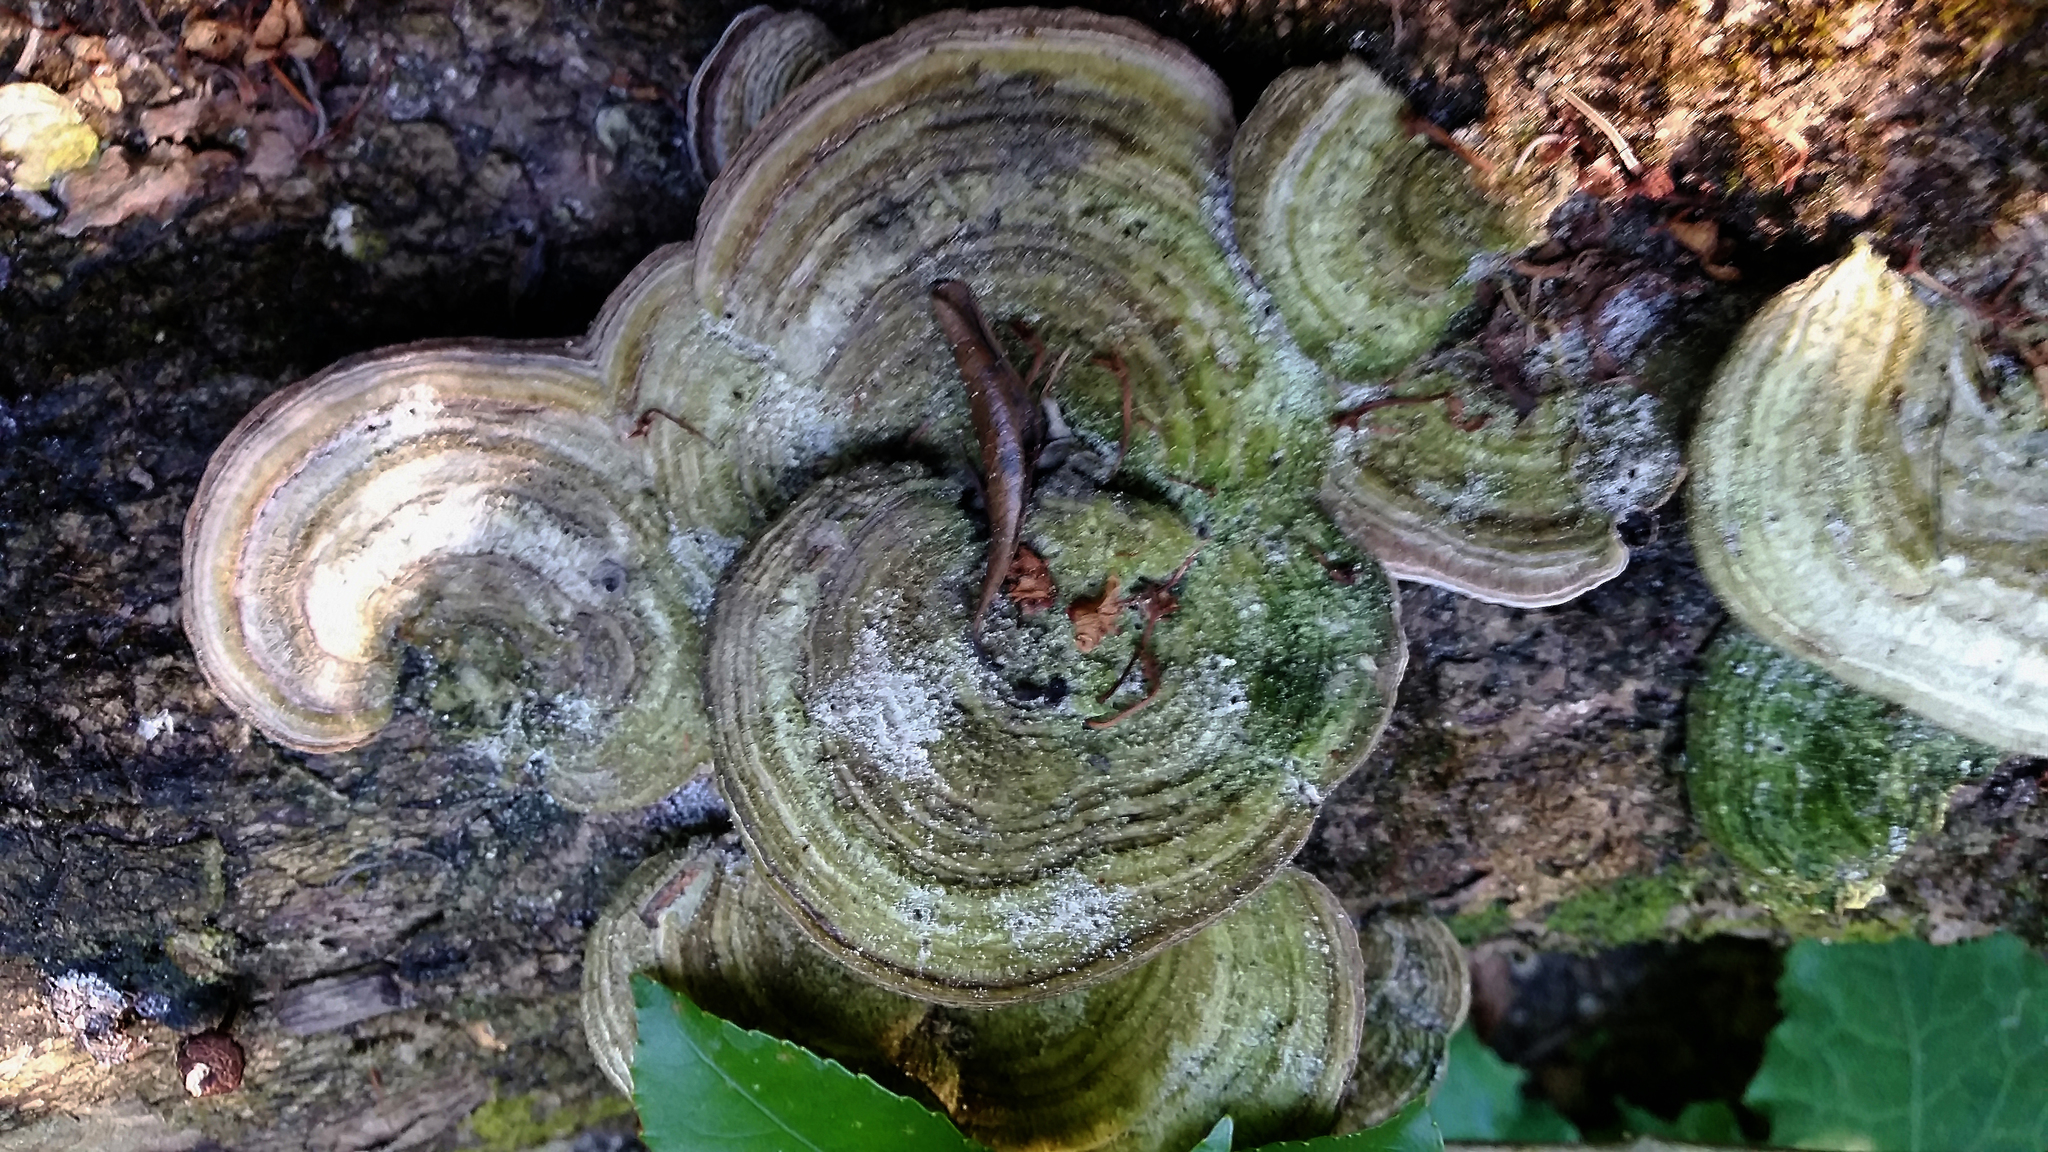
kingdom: Fungi
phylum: Basidiomycota
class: Agaricomycetes
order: Polyporales
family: Polyporaceae
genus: Trametes
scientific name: Trametes versicolor
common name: Turkeytail
